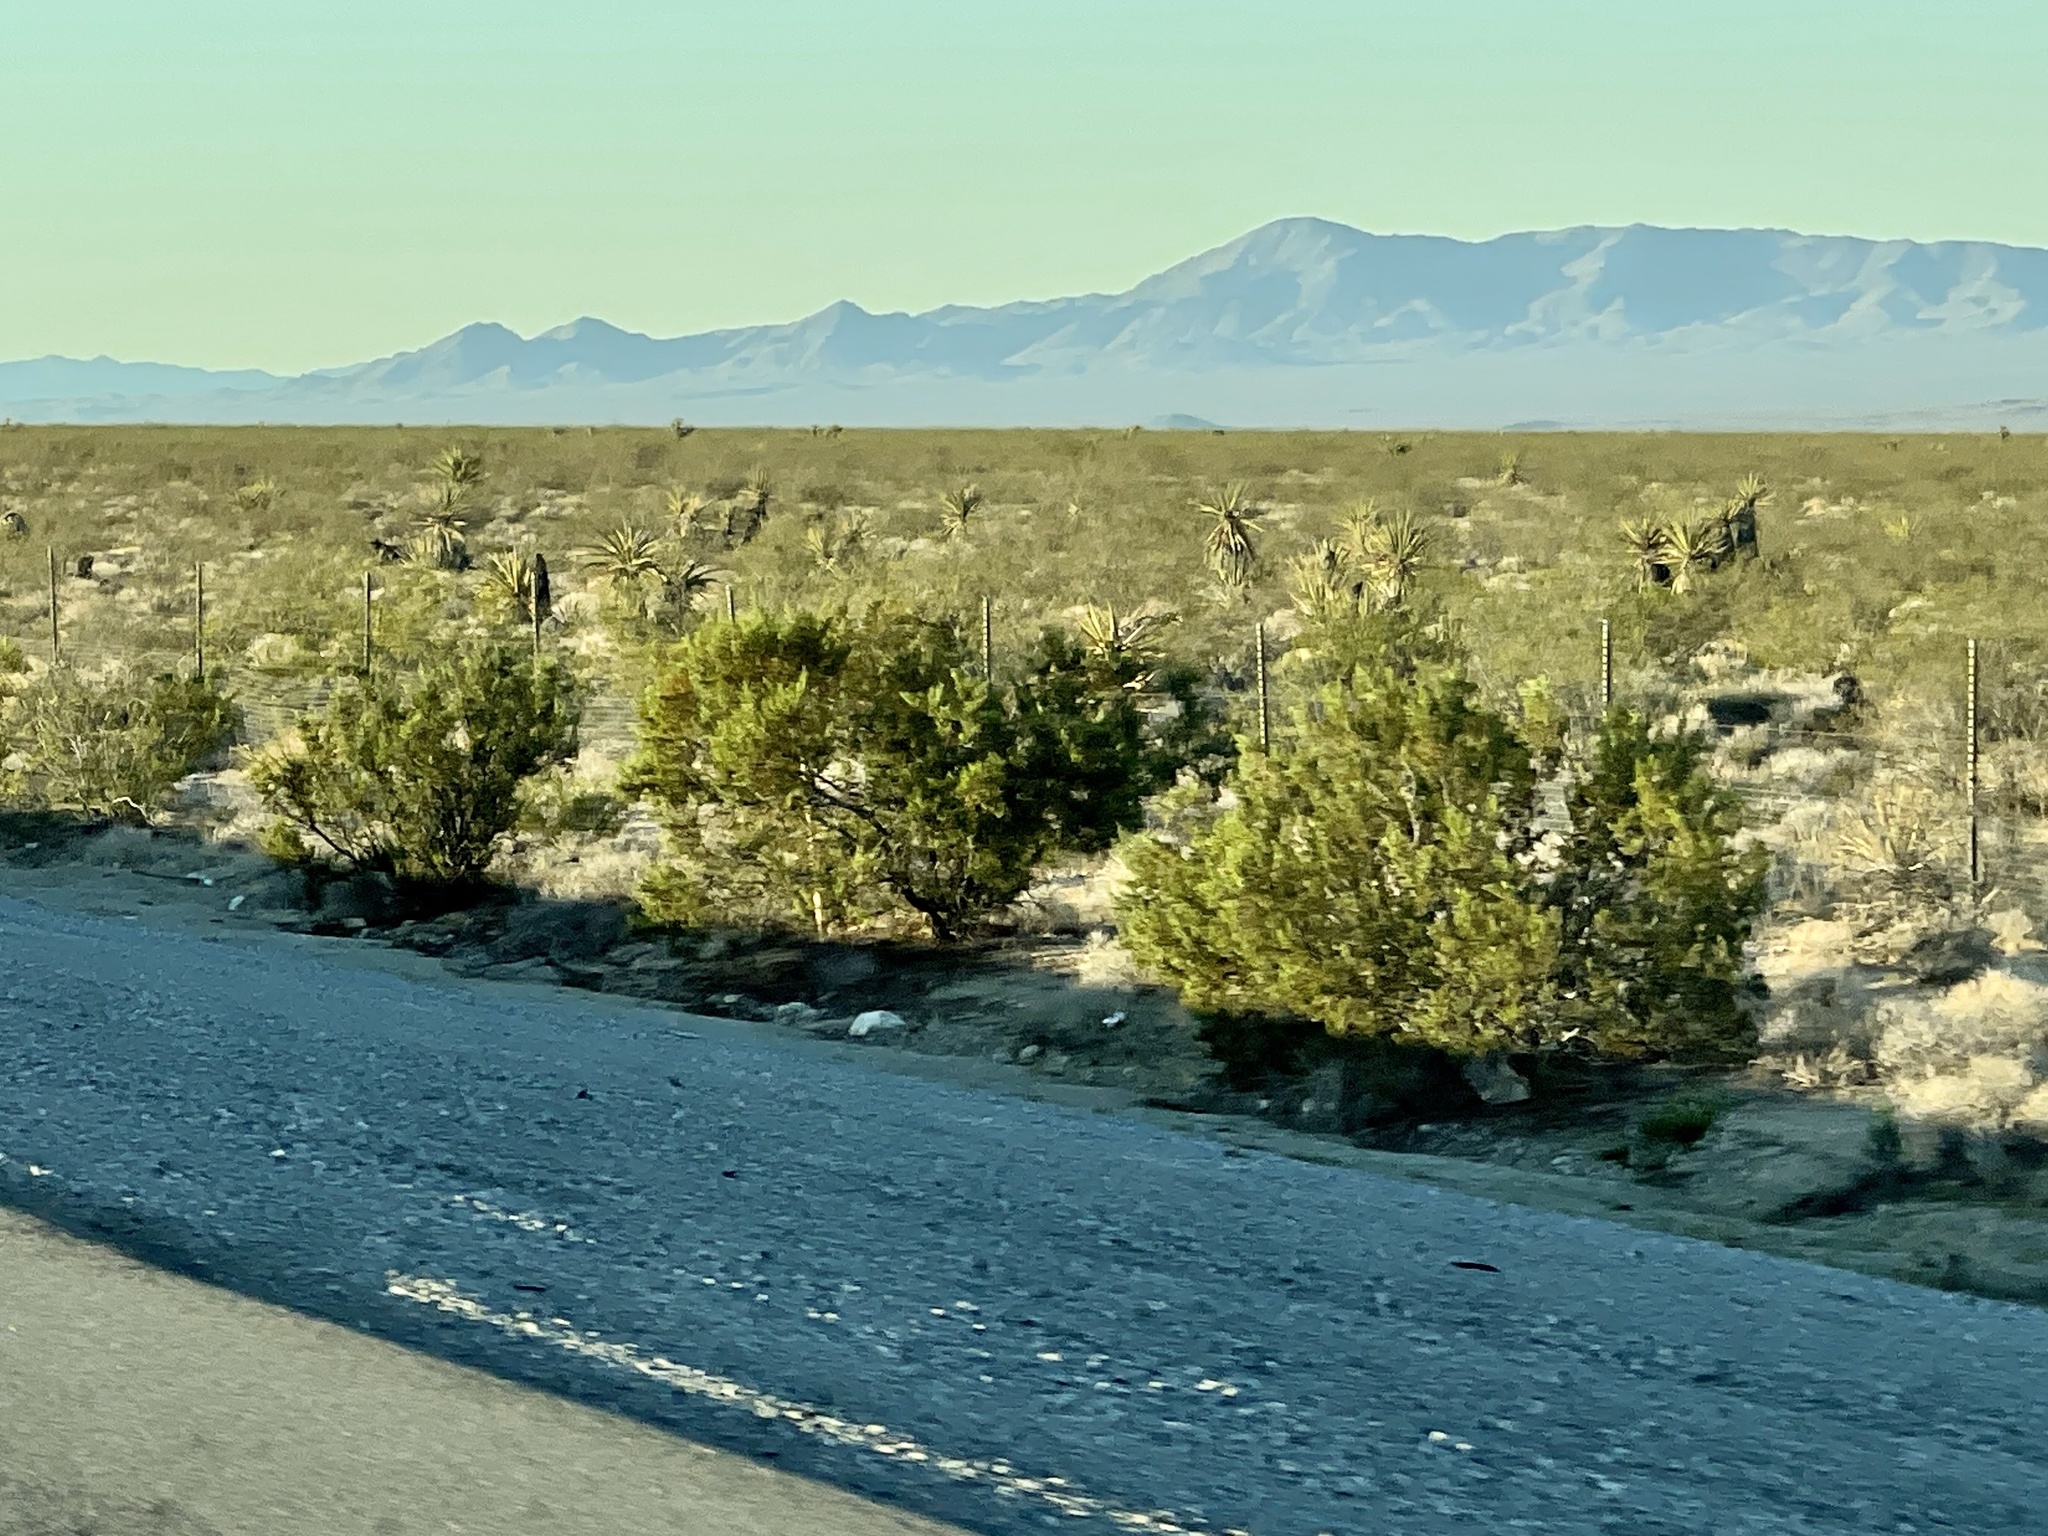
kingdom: Plantae
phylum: Tracheophyta
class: Magnoliopsida
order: Zygophyllales
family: Zygophyllaceae
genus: Larrea
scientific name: Larrea tridentata
